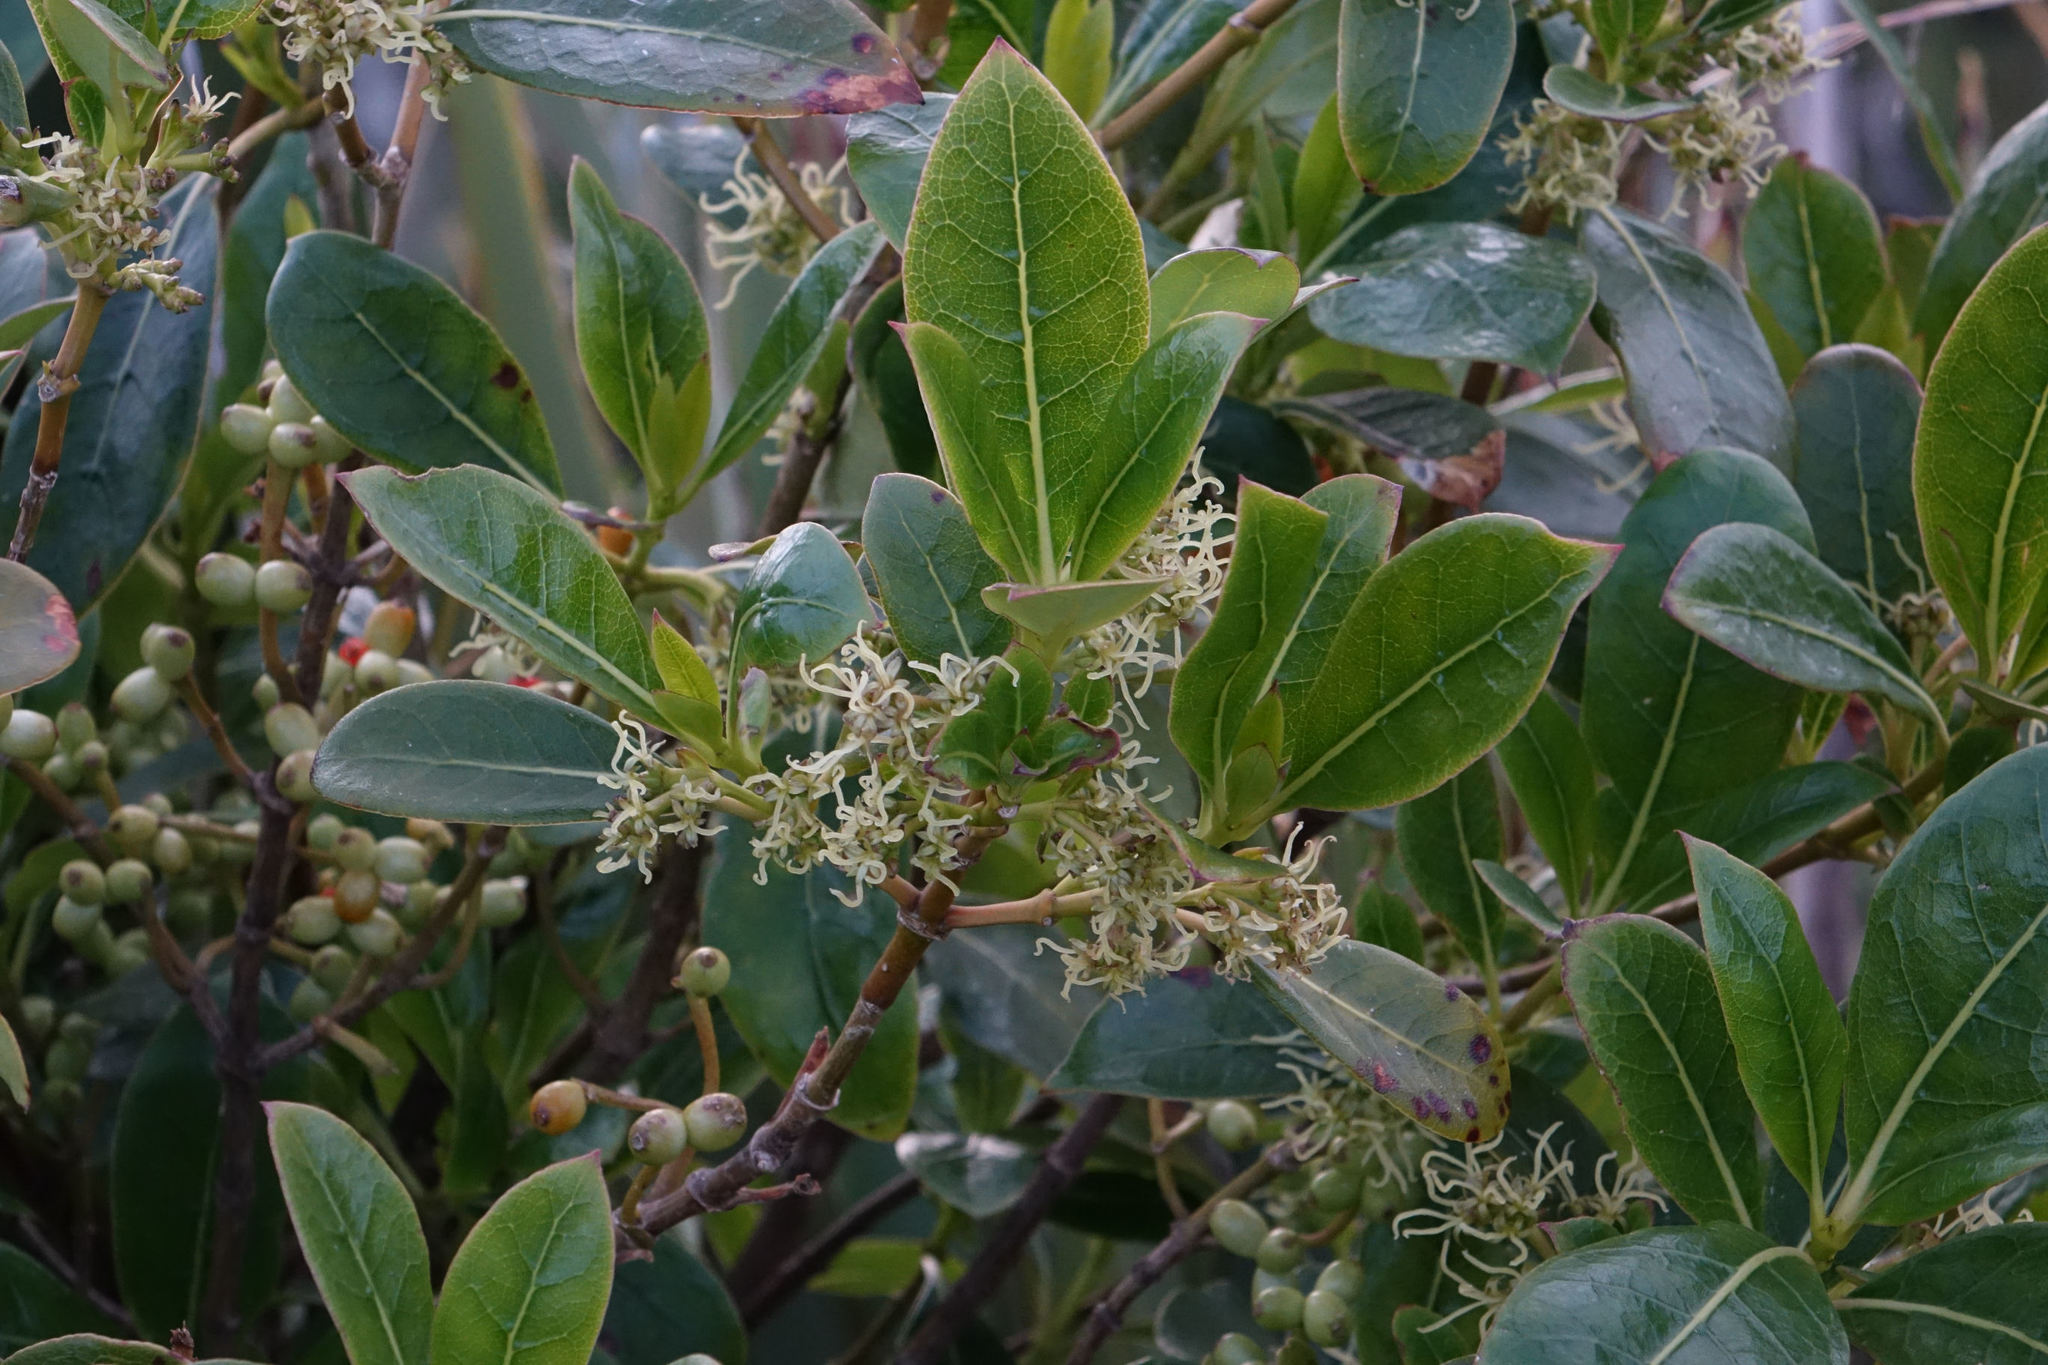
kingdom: Plantae
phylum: Tracheophyta
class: Magnoliopsida
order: Gentianales
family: Rubiaceae
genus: Coprosma
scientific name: Coprosma lucida
